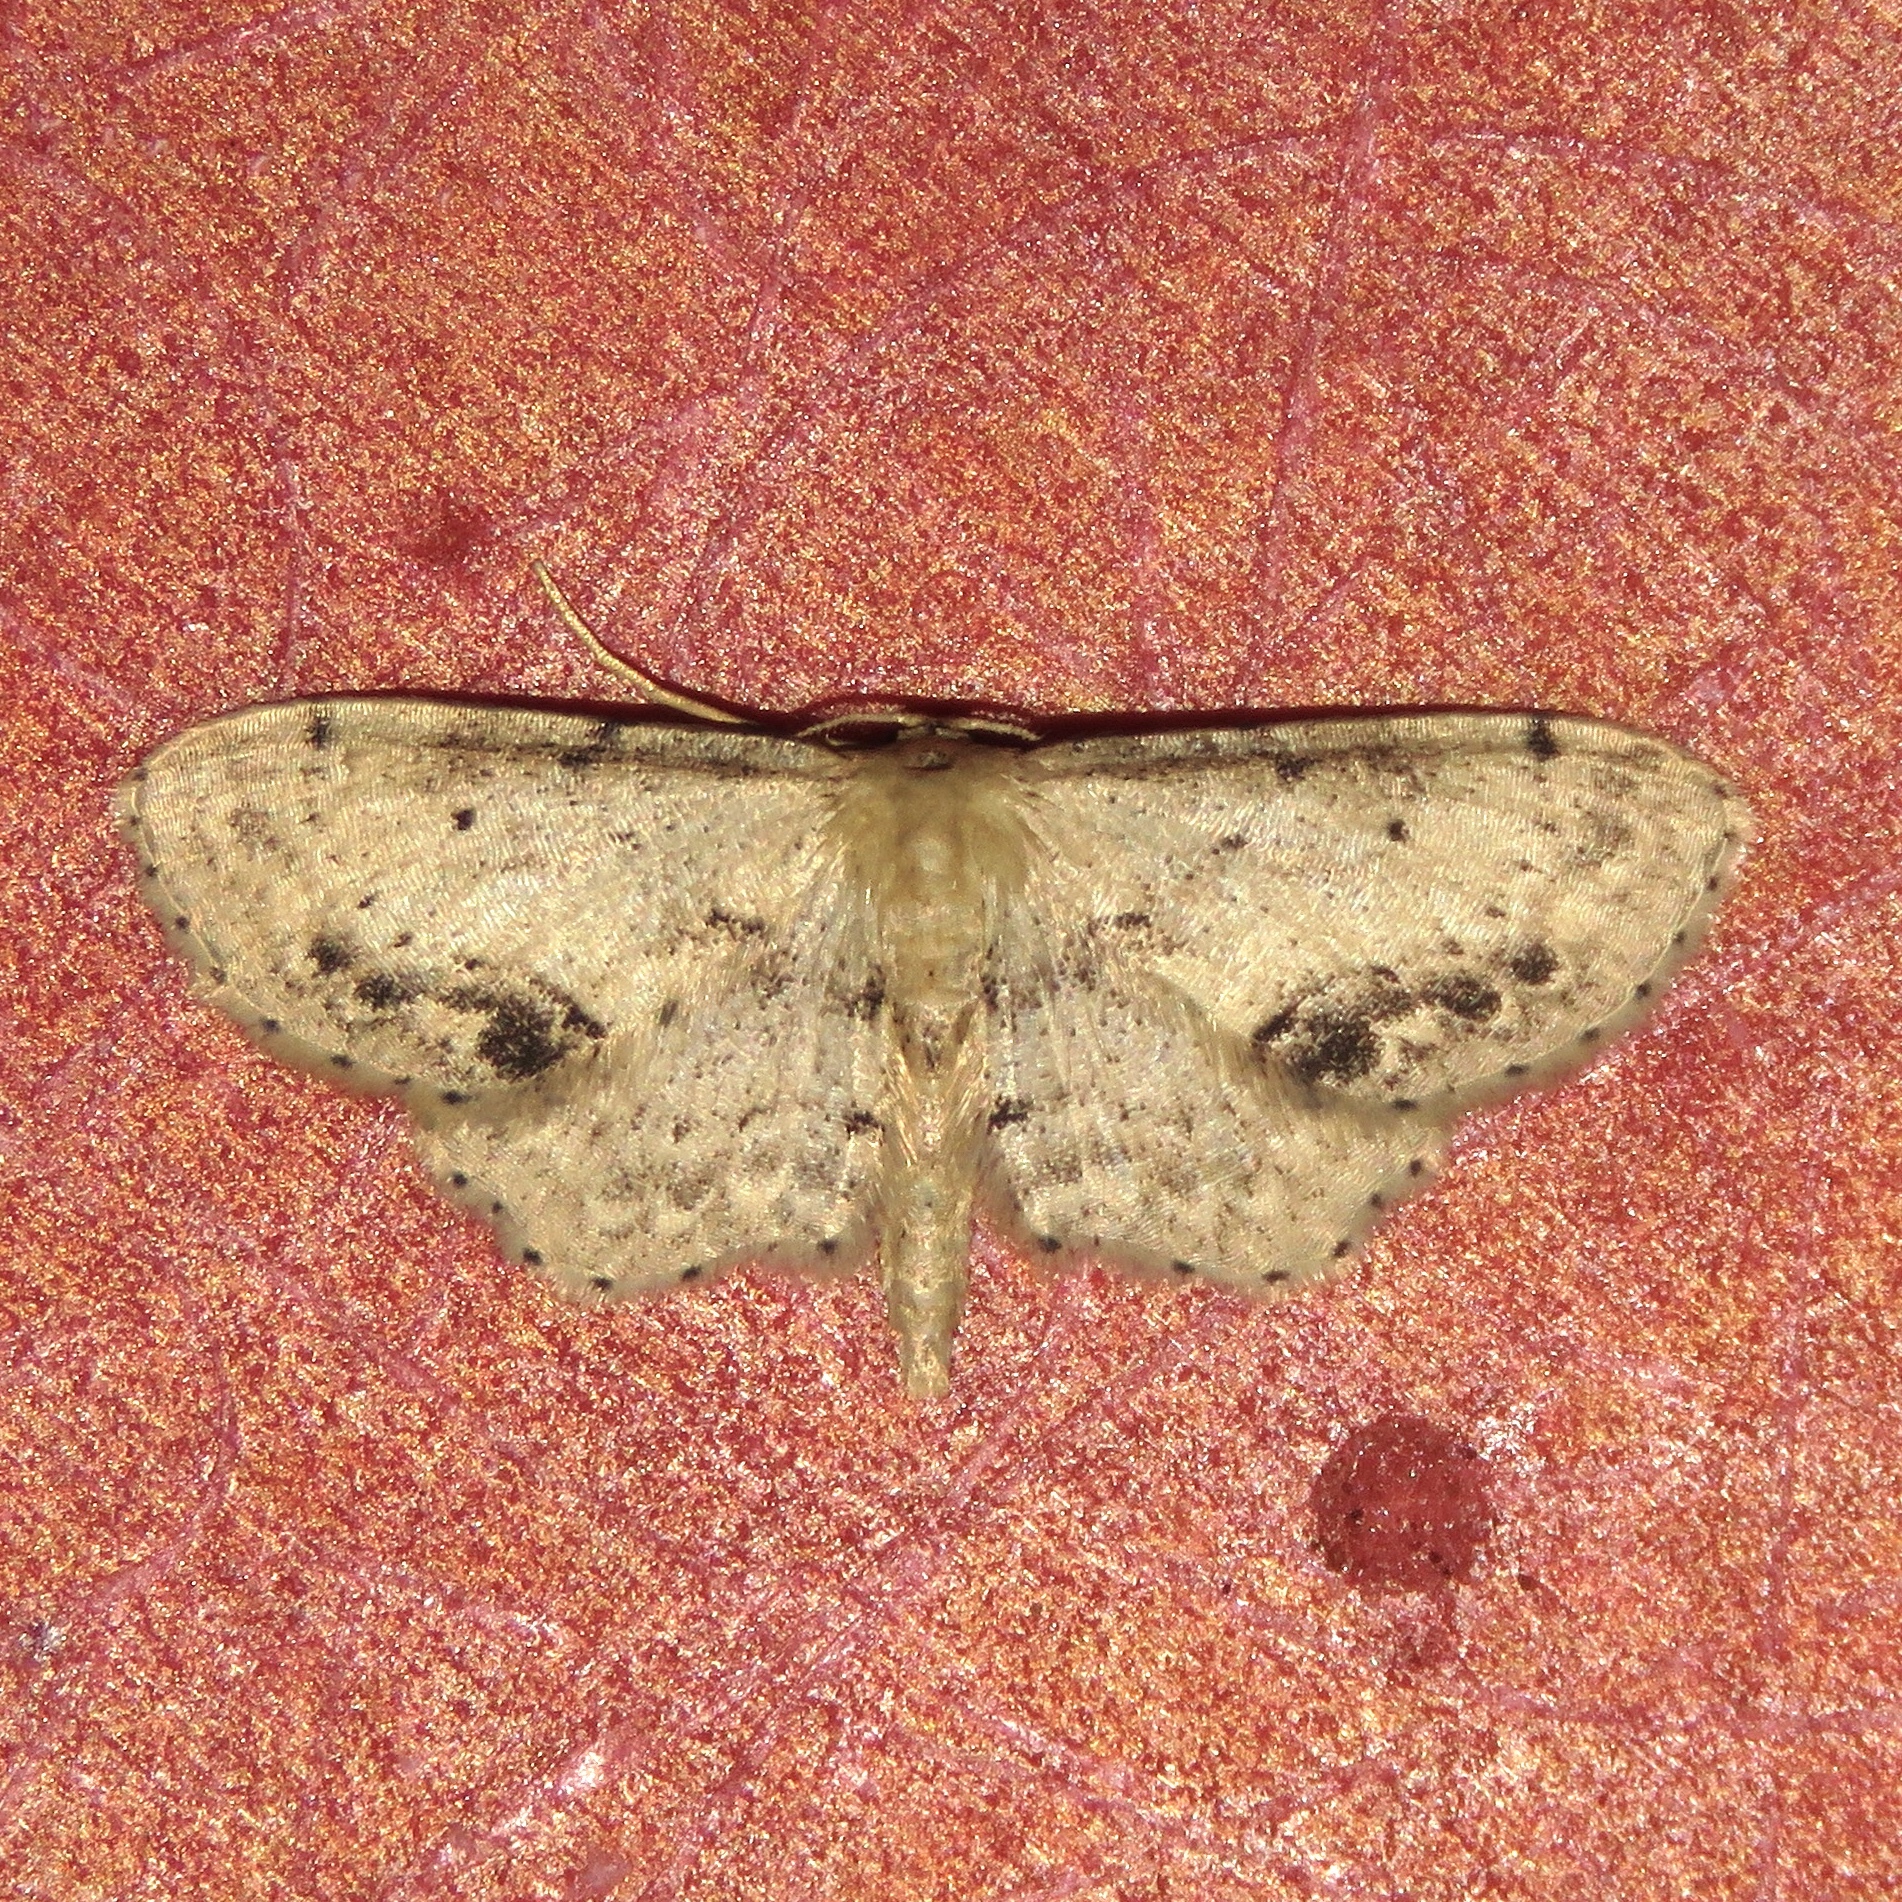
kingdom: Animalia
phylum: Arthropoda
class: Insecta
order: Lepidoptera
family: Geometridae
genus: Idaea
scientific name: Idaea dimidiata
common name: Single-dotted wave
